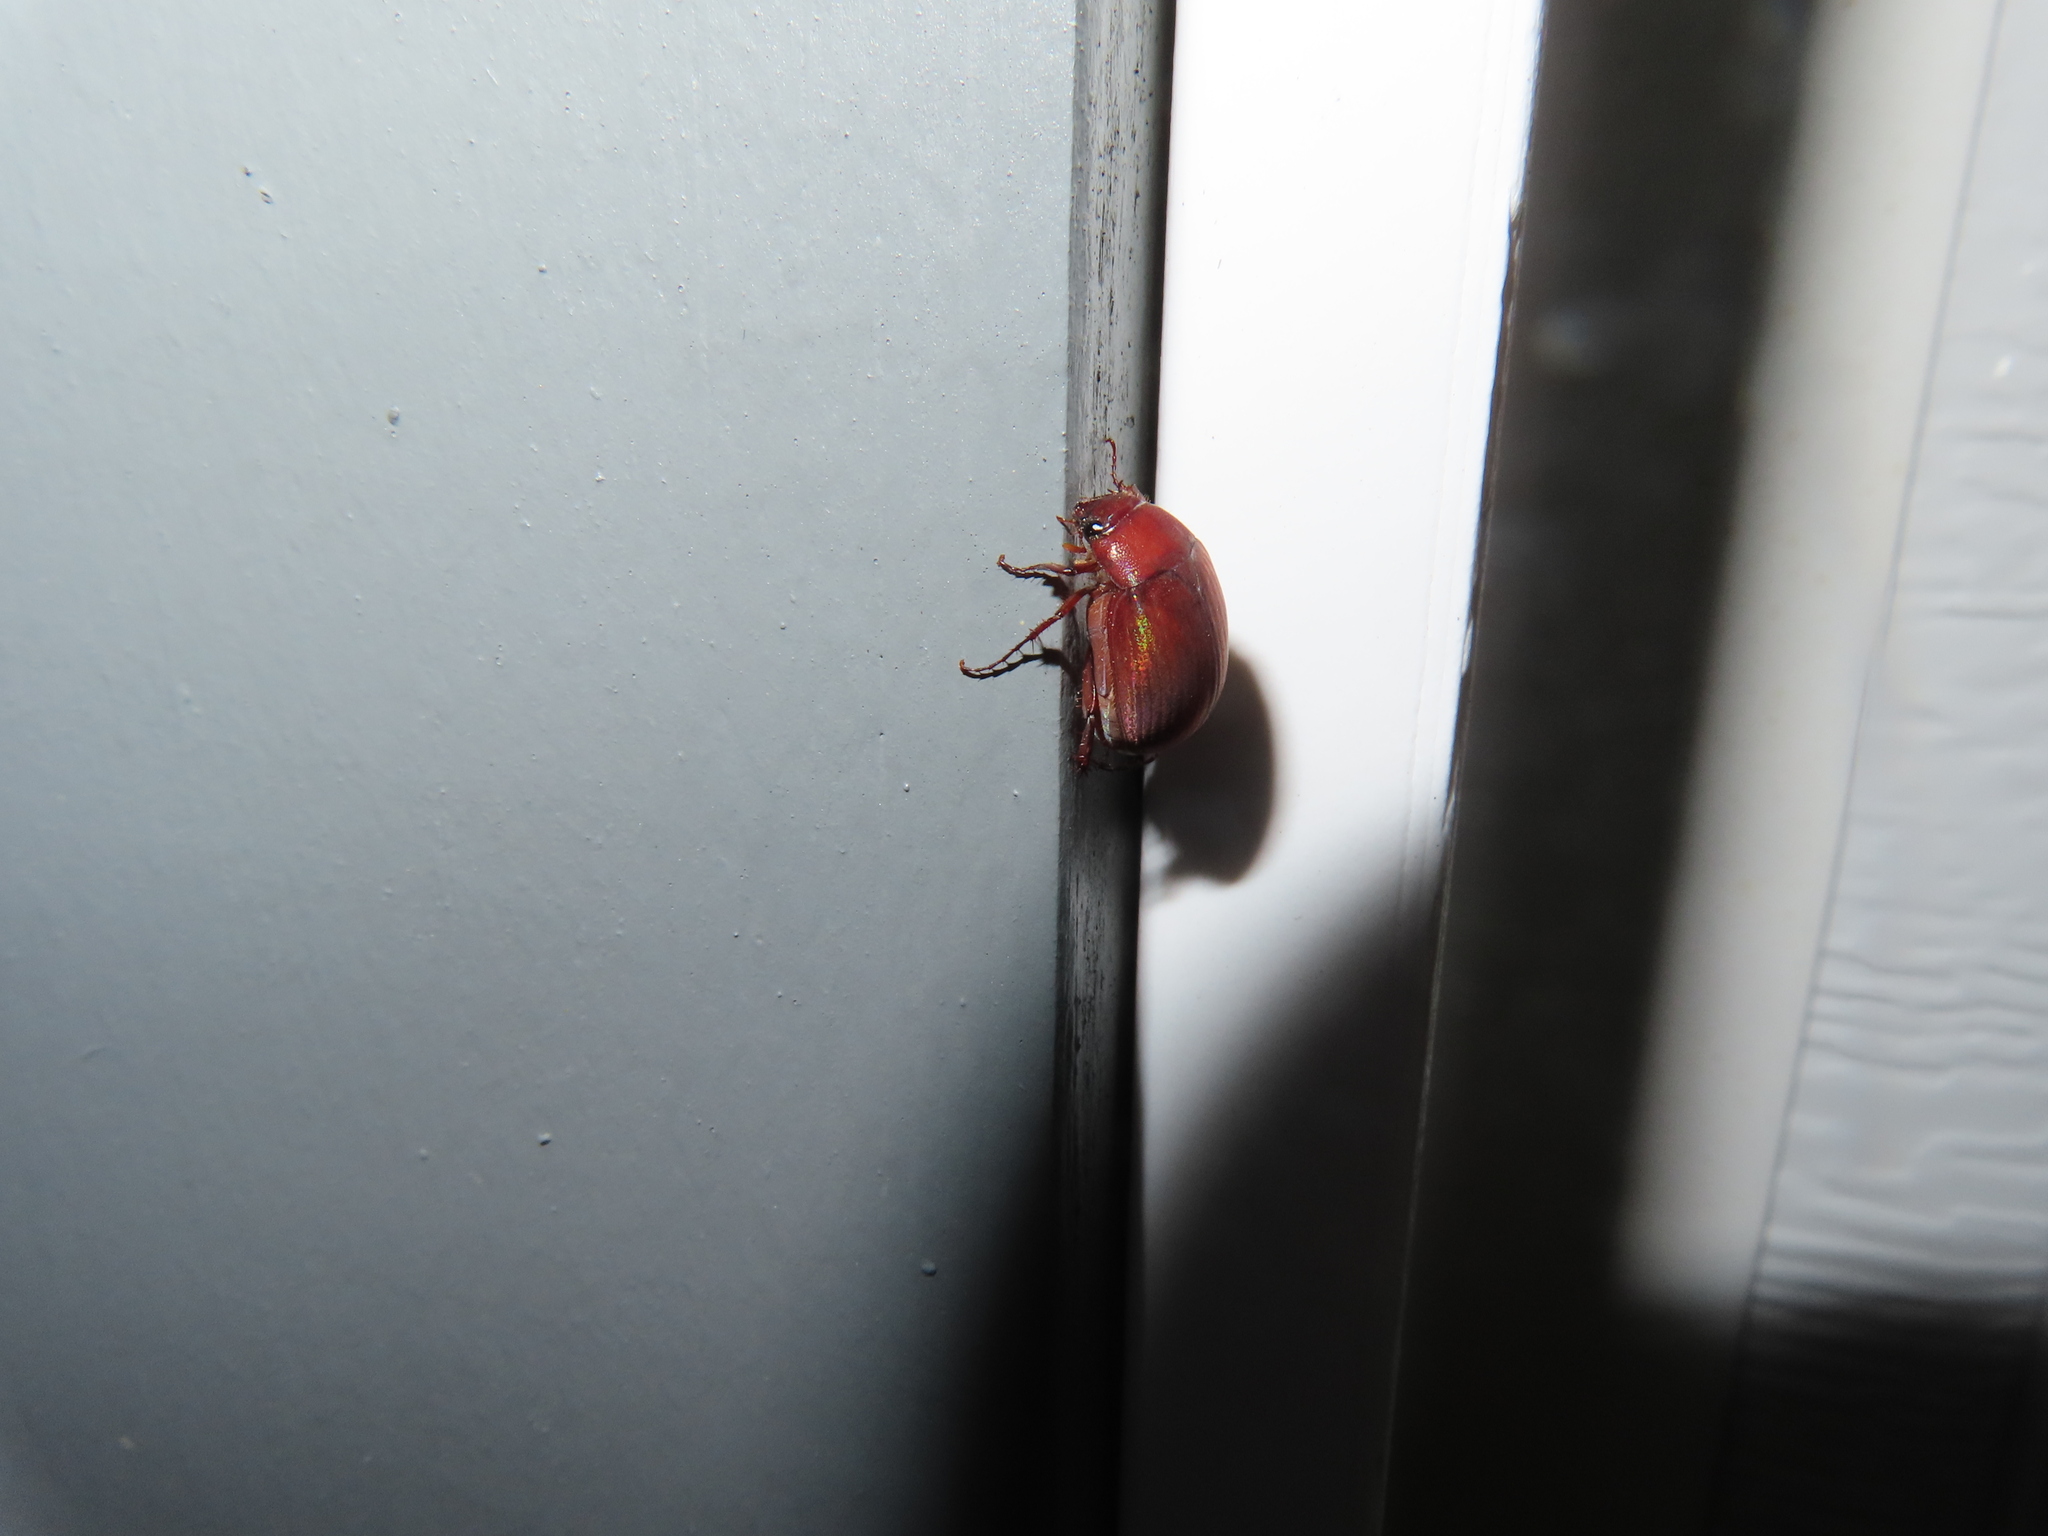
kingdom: Animalia
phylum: Arthropoda
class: Insecta
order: Coleoptera
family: Scarabaeidae
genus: Maladera
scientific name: Maladera formosae
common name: Asiatic garden beetle
